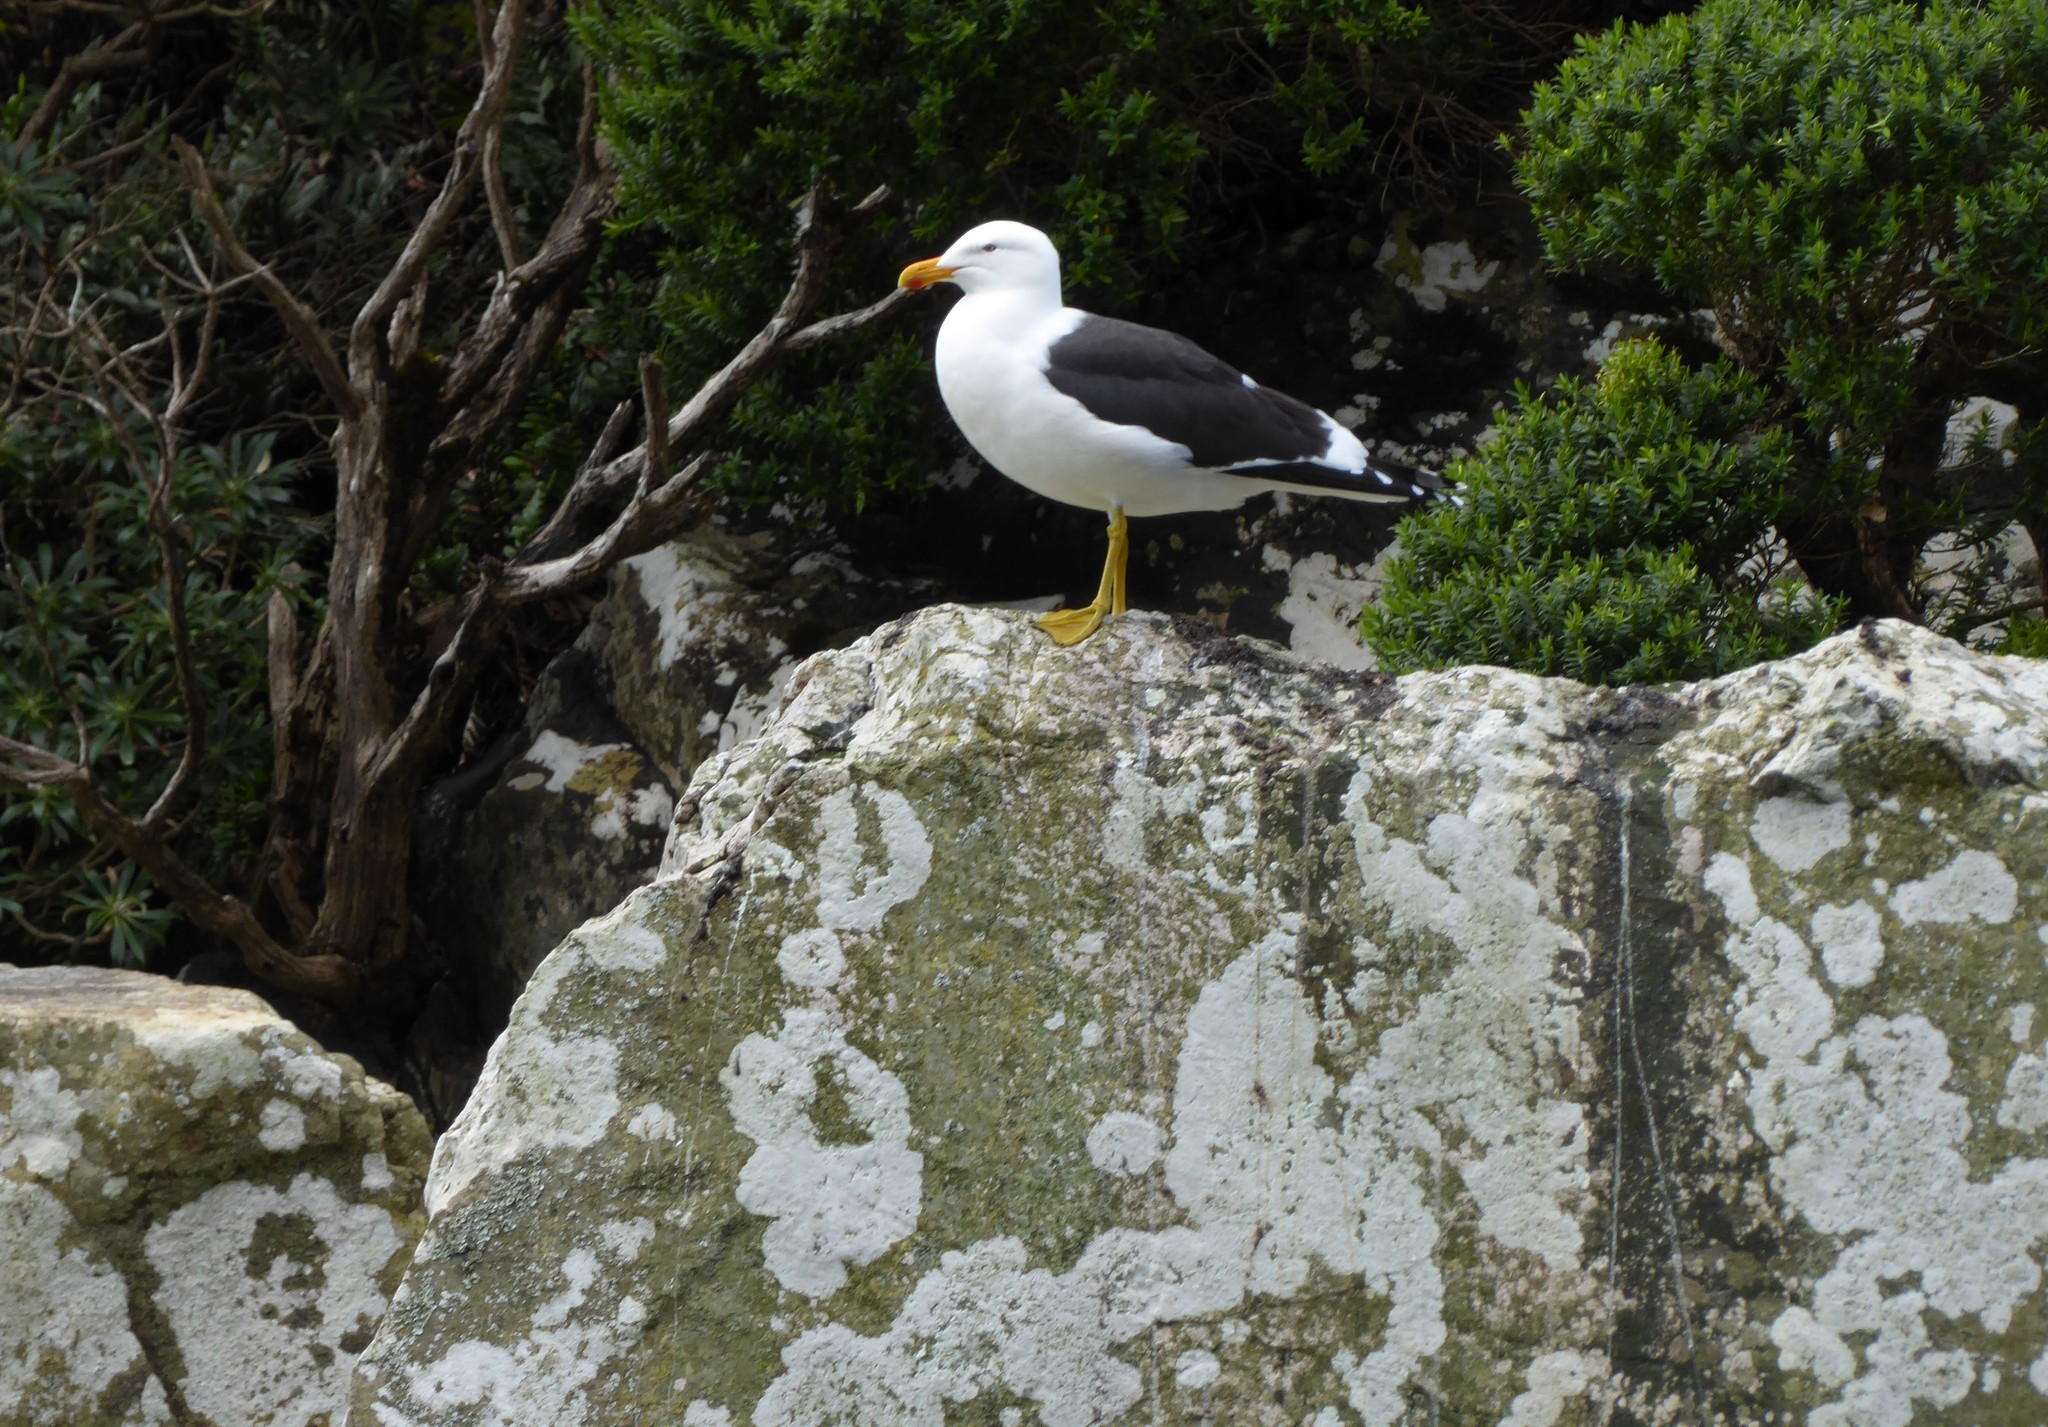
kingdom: Animalia
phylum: Chordata
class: Aves
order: Charadriiformes
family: Laridae
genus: Larus
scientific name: Larus dominicanus
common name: Kelp gull
